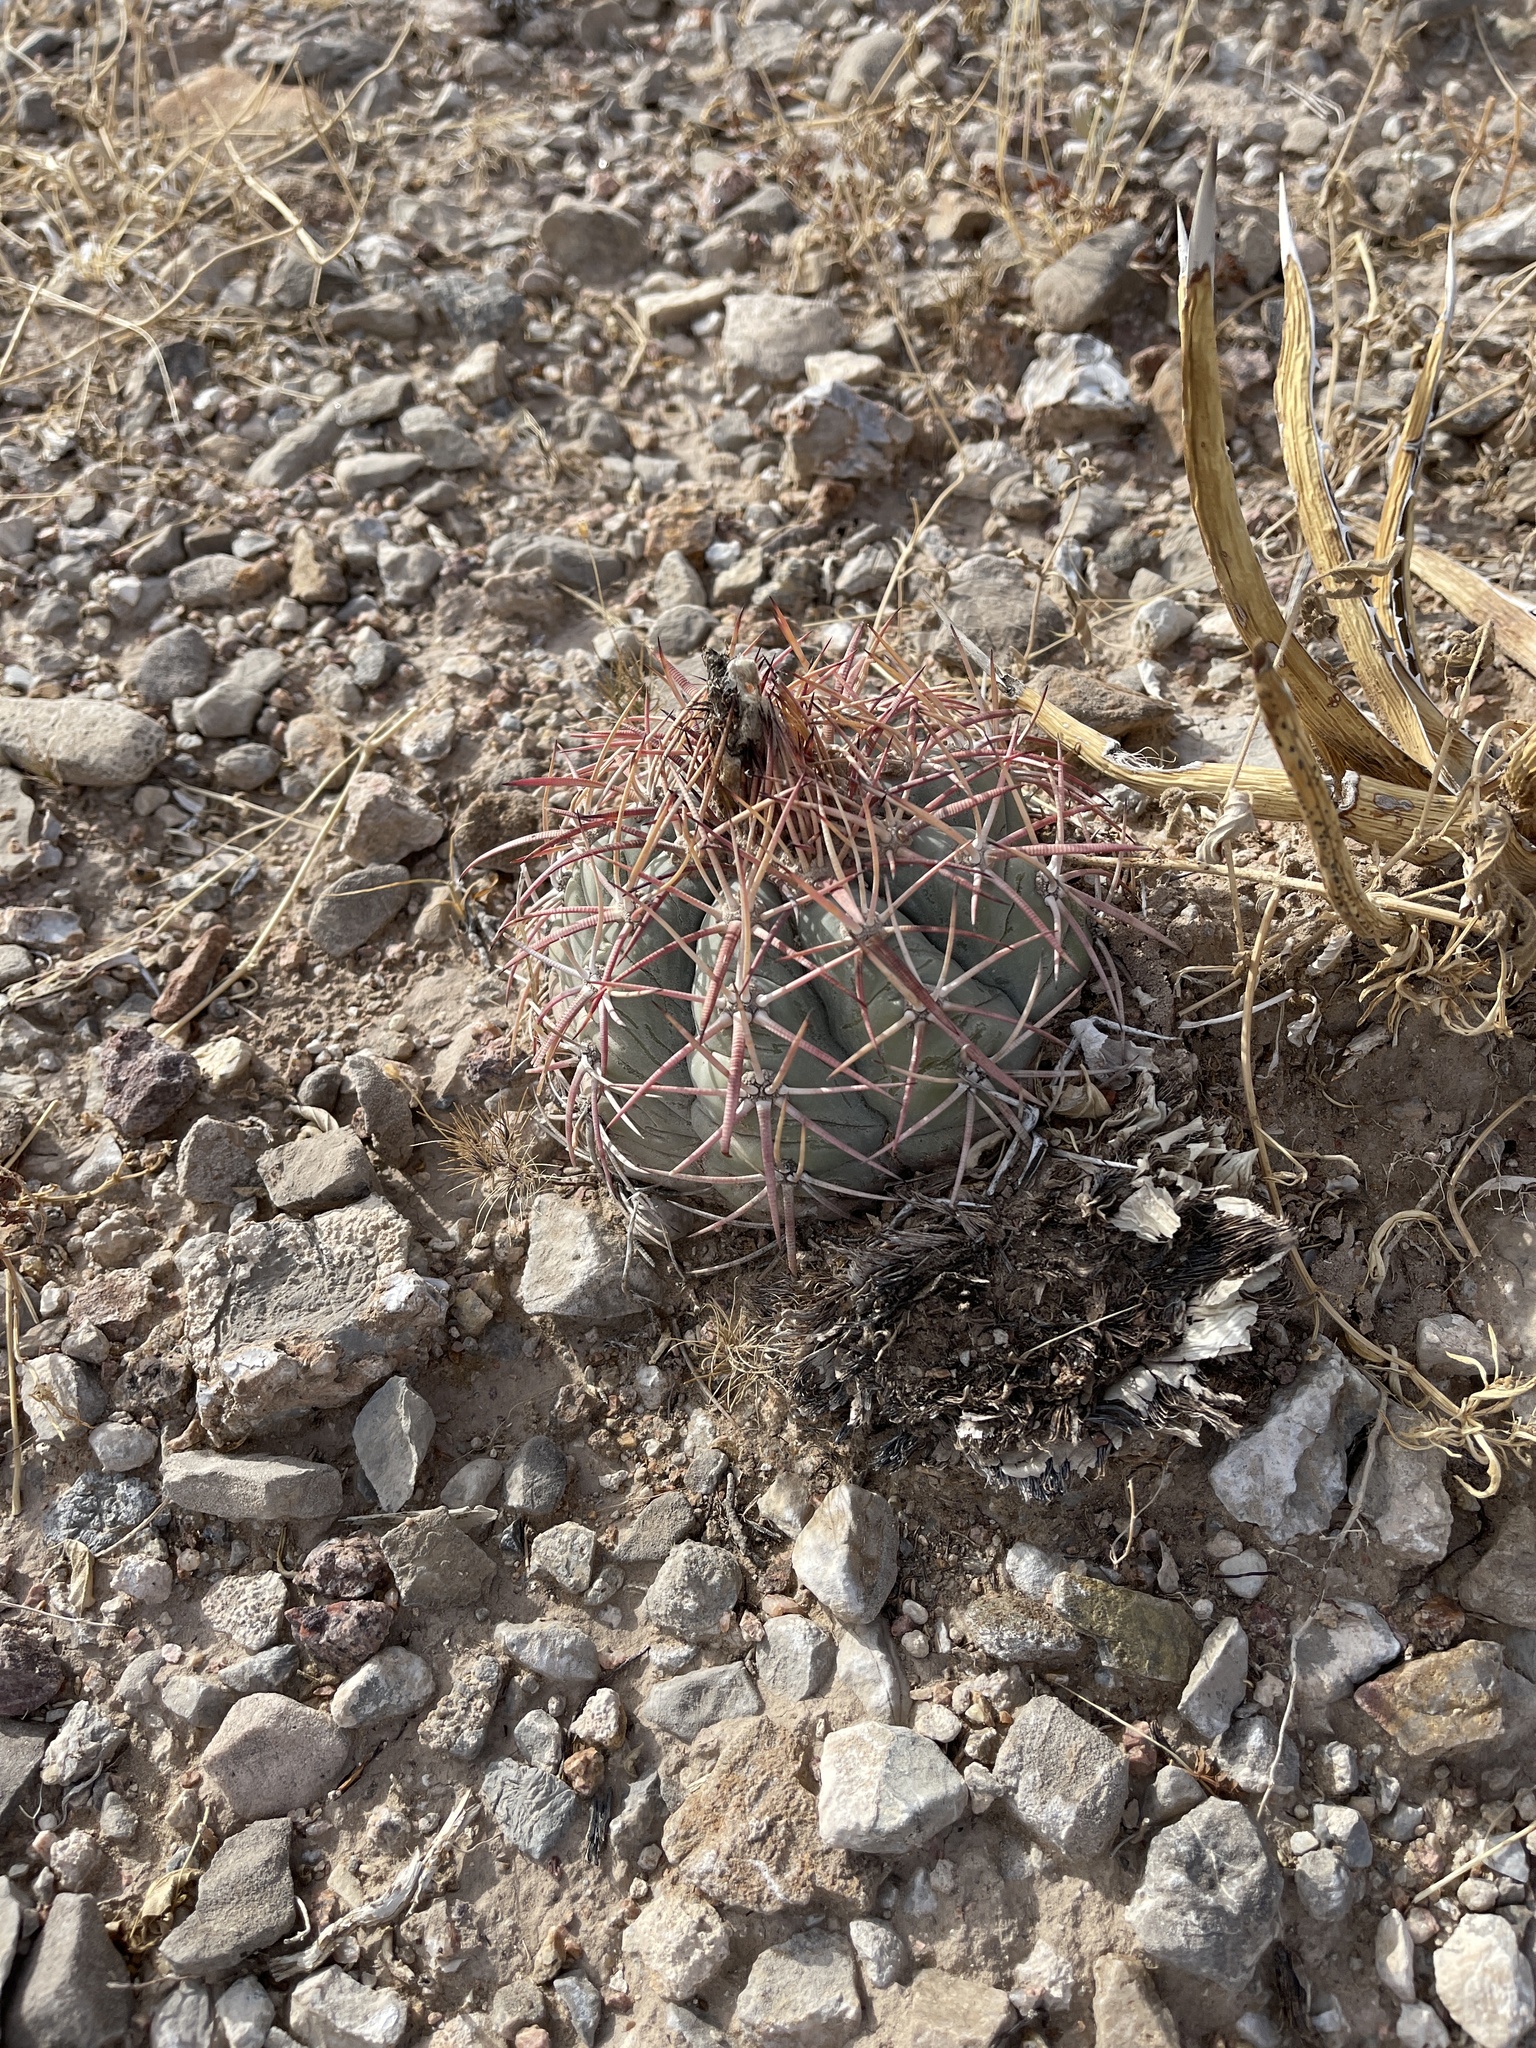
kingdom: Plantae
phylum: Tracheophyta
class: Magnoliopsida
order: Caryophyllales
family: Cactaceae
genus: Echinocactus
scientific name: Echinocactus horizonthalonius
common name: Devilshead
